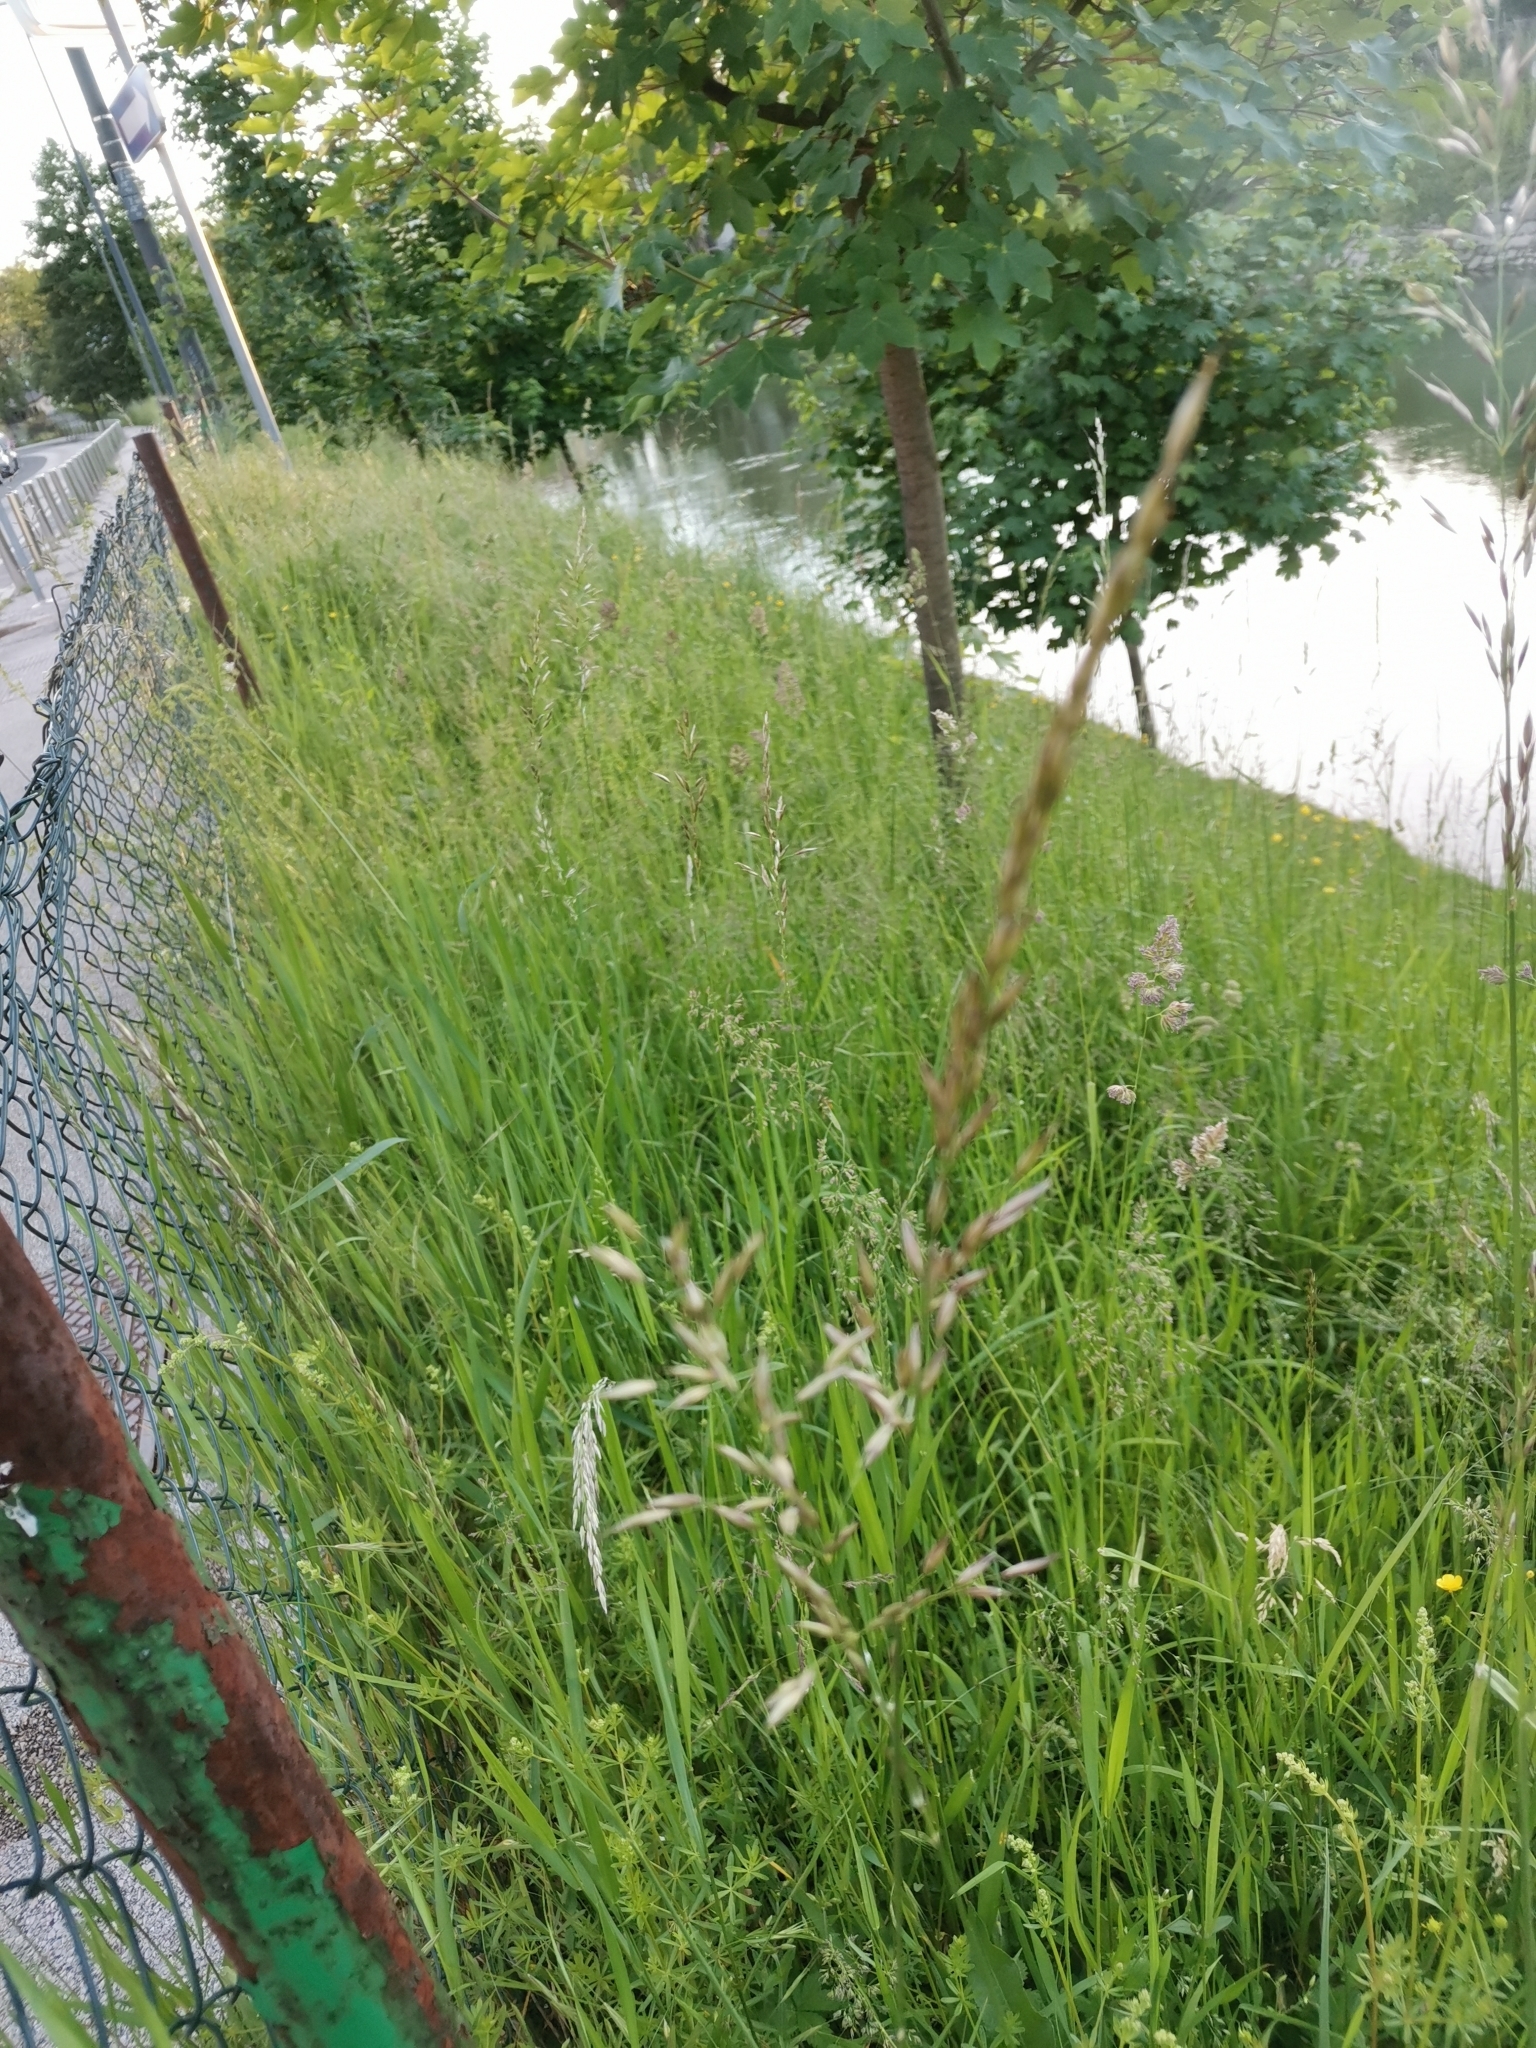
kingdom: Plantae
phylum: Tracheophyta
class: Liliopsida
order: Poales
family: Poaceae
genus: Arrhenatherum
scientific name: Arrhenatherum elatius
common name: Tall oatgrass
